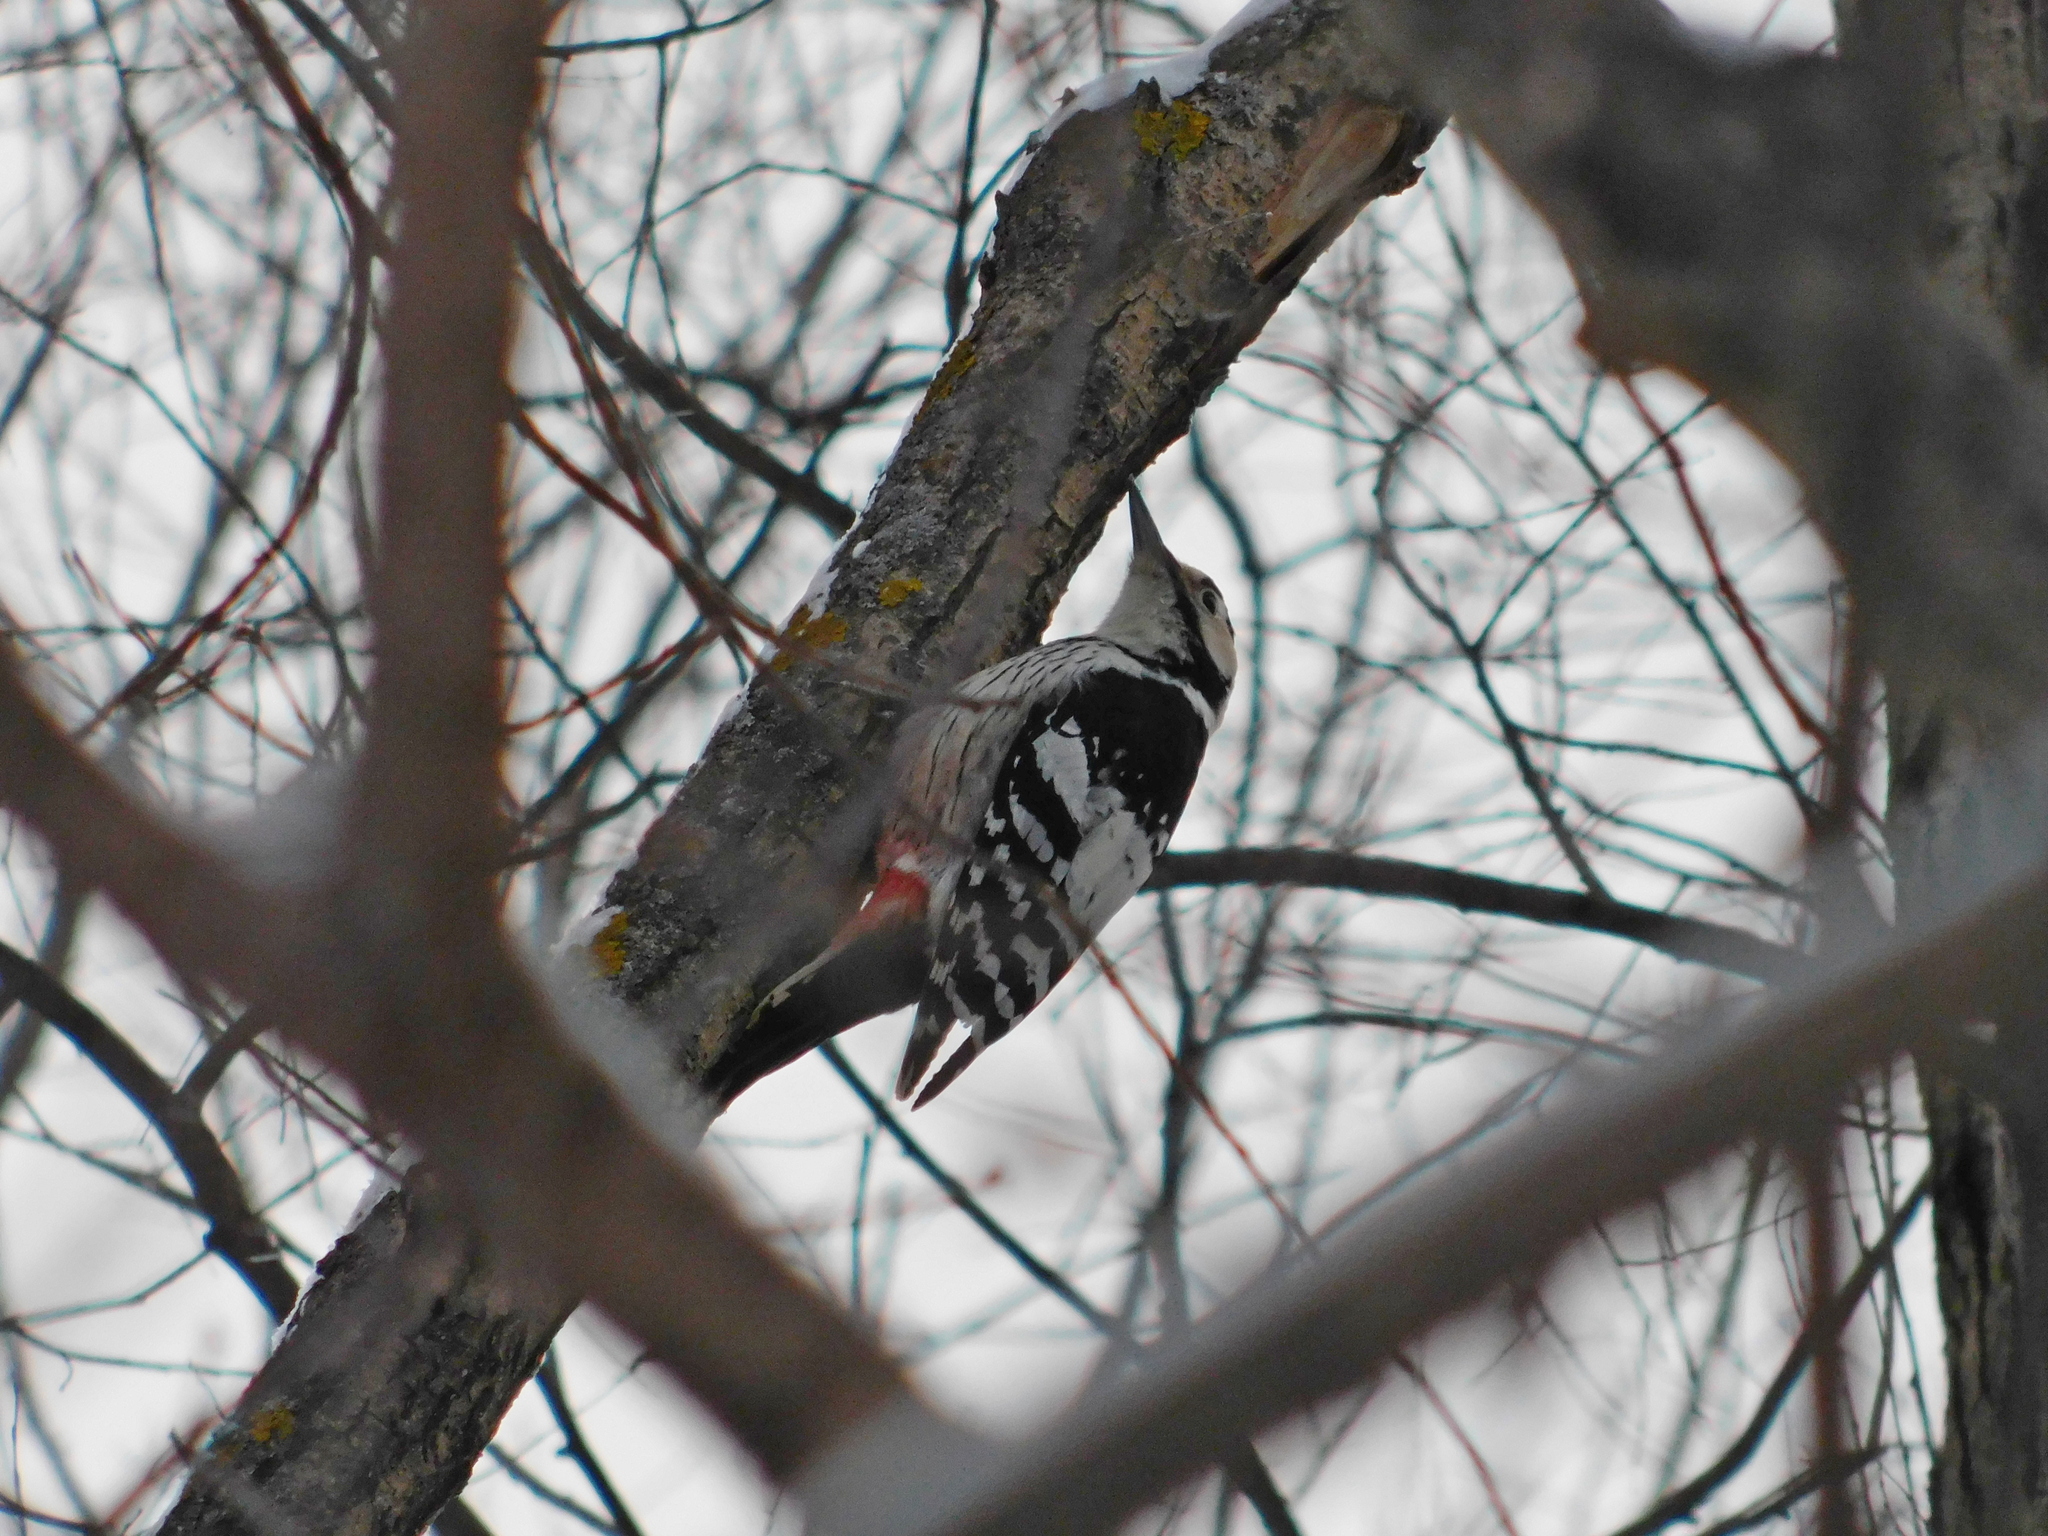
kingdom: Animalia
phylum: Chordata
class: Aves
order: Piciformes
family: Picidae
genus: Dendrocopos
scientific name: Dendrocopos leucotos
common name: White-backed woodpecker
